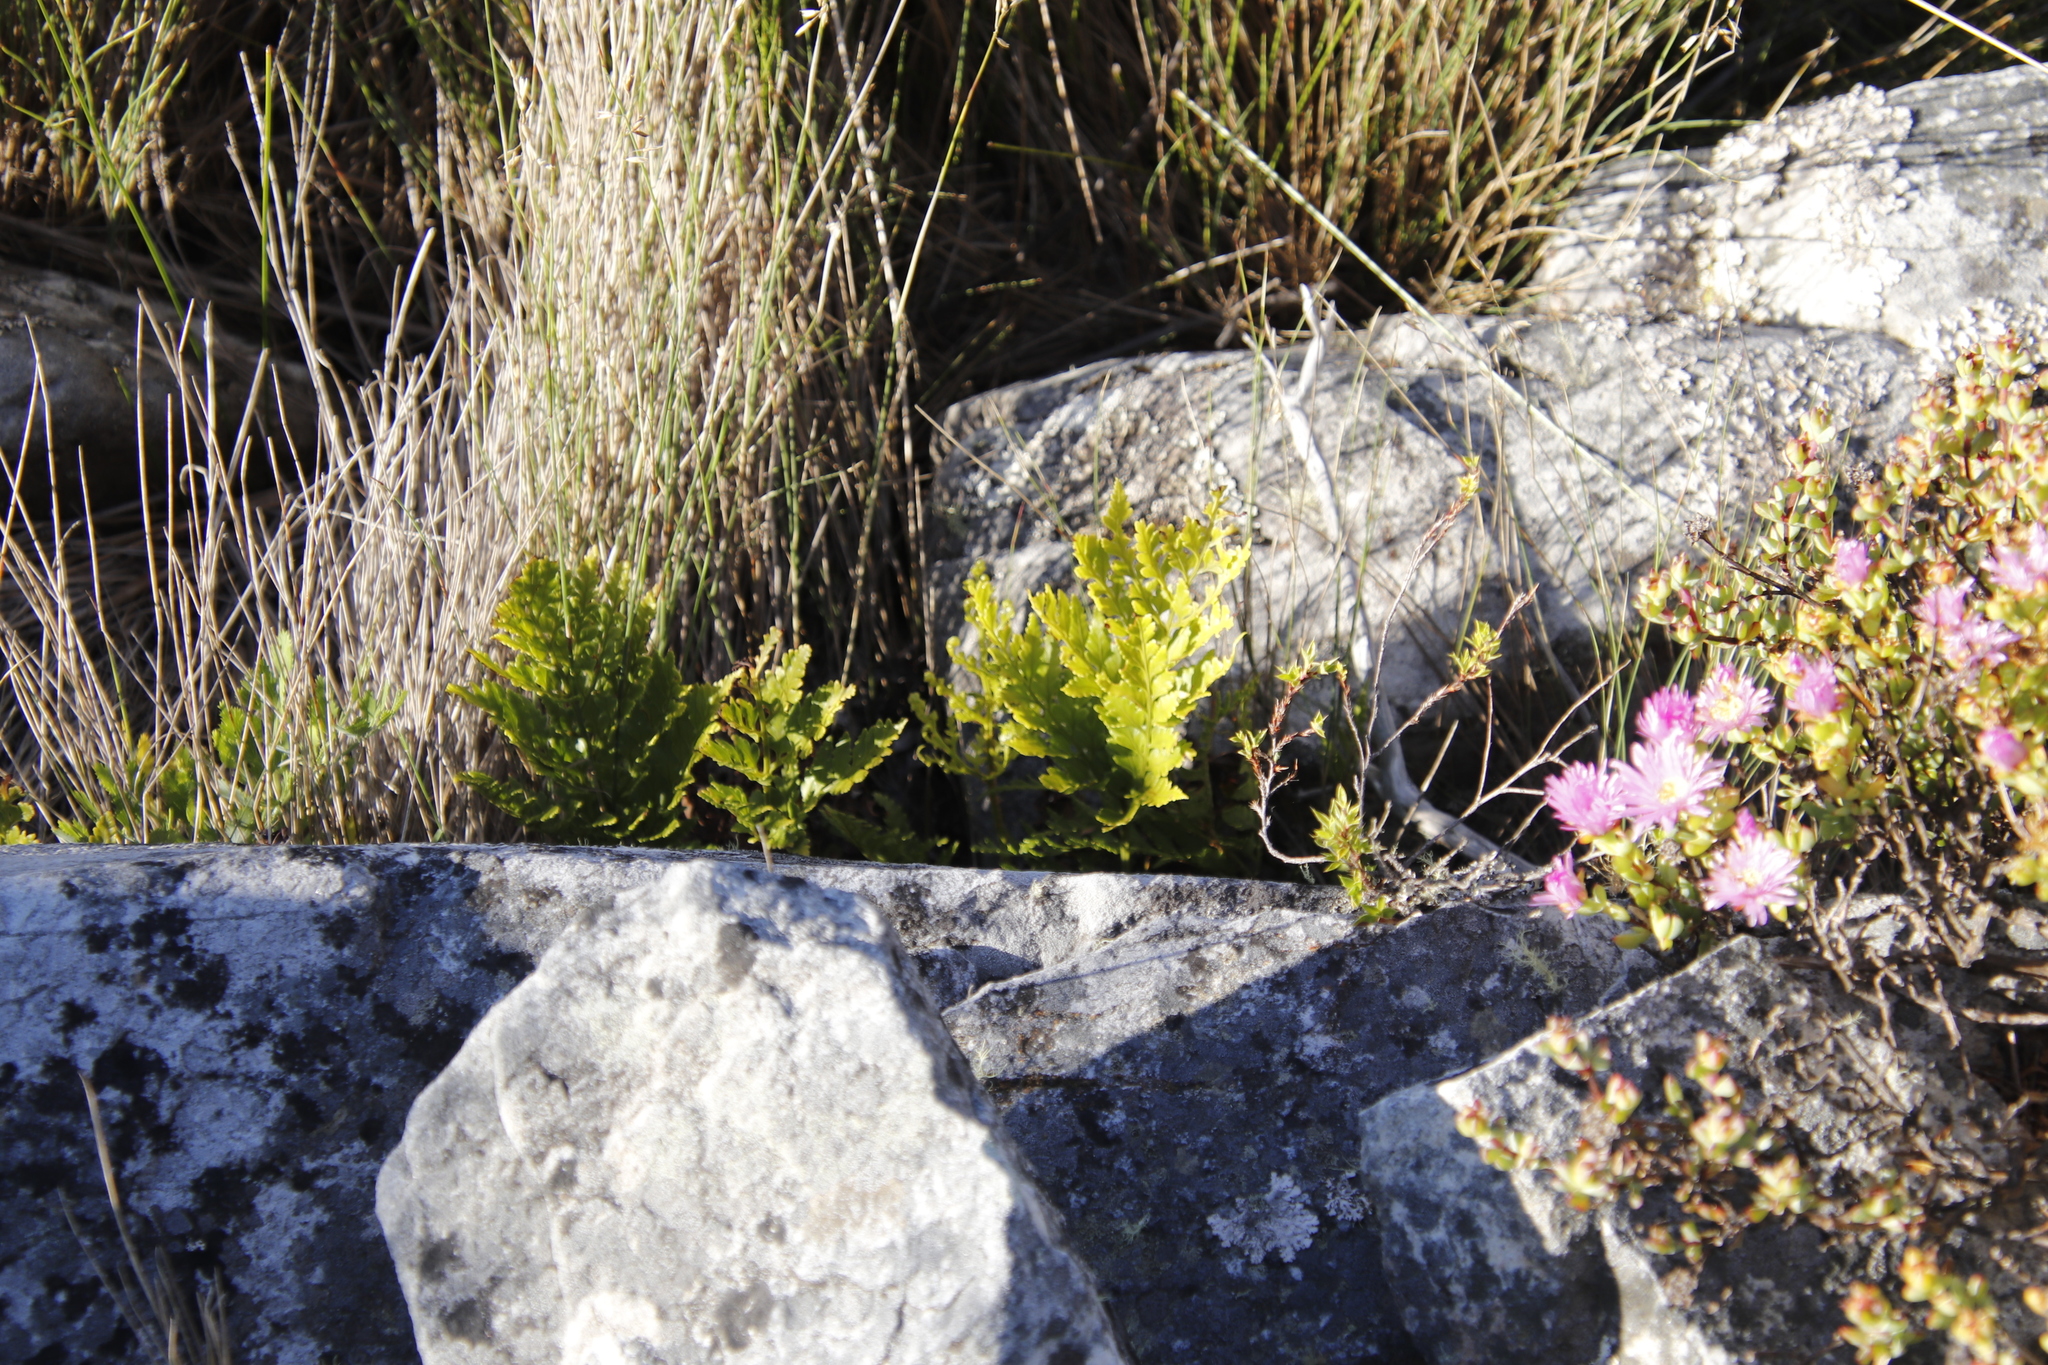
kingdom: Plantae
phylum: Tracheophyta
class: Polypodiopsida
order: Polypodiales
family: Dryopteridaceae
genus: Rumohra
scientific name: Rumohra adiantiformis
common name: Leather fern
